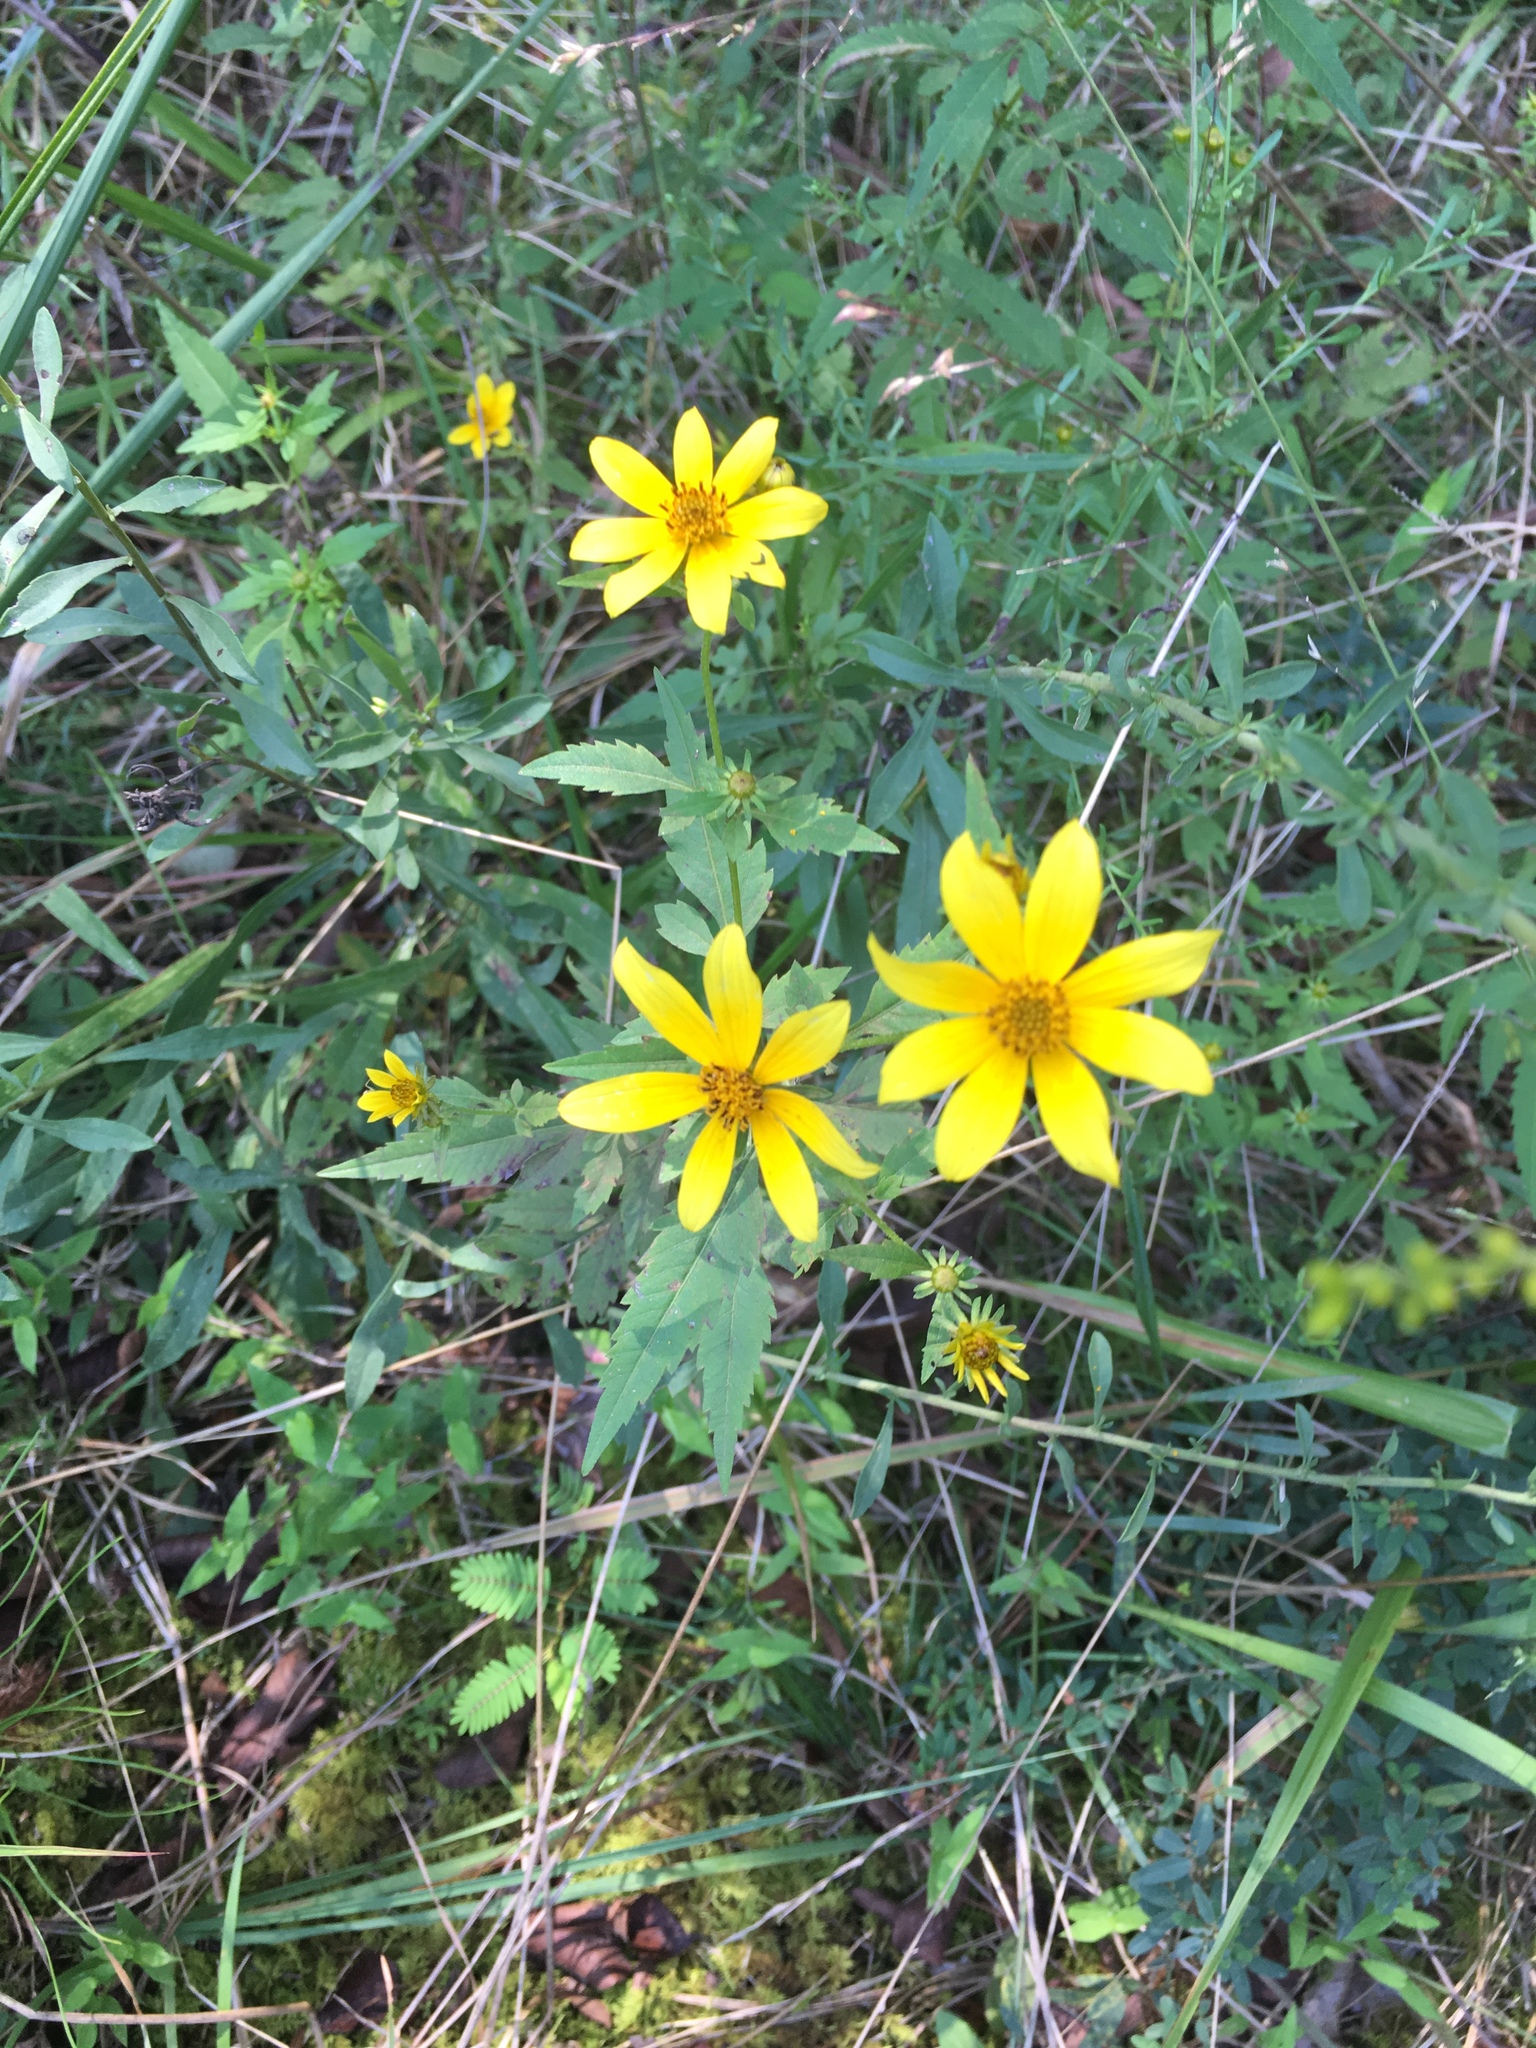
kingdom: Plantae
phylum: Tracheophyta
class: Magnoliopsida
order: Asterales
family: Asteraceae
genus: Bidens
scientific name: Bidens aristosa
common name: Western tickseed
